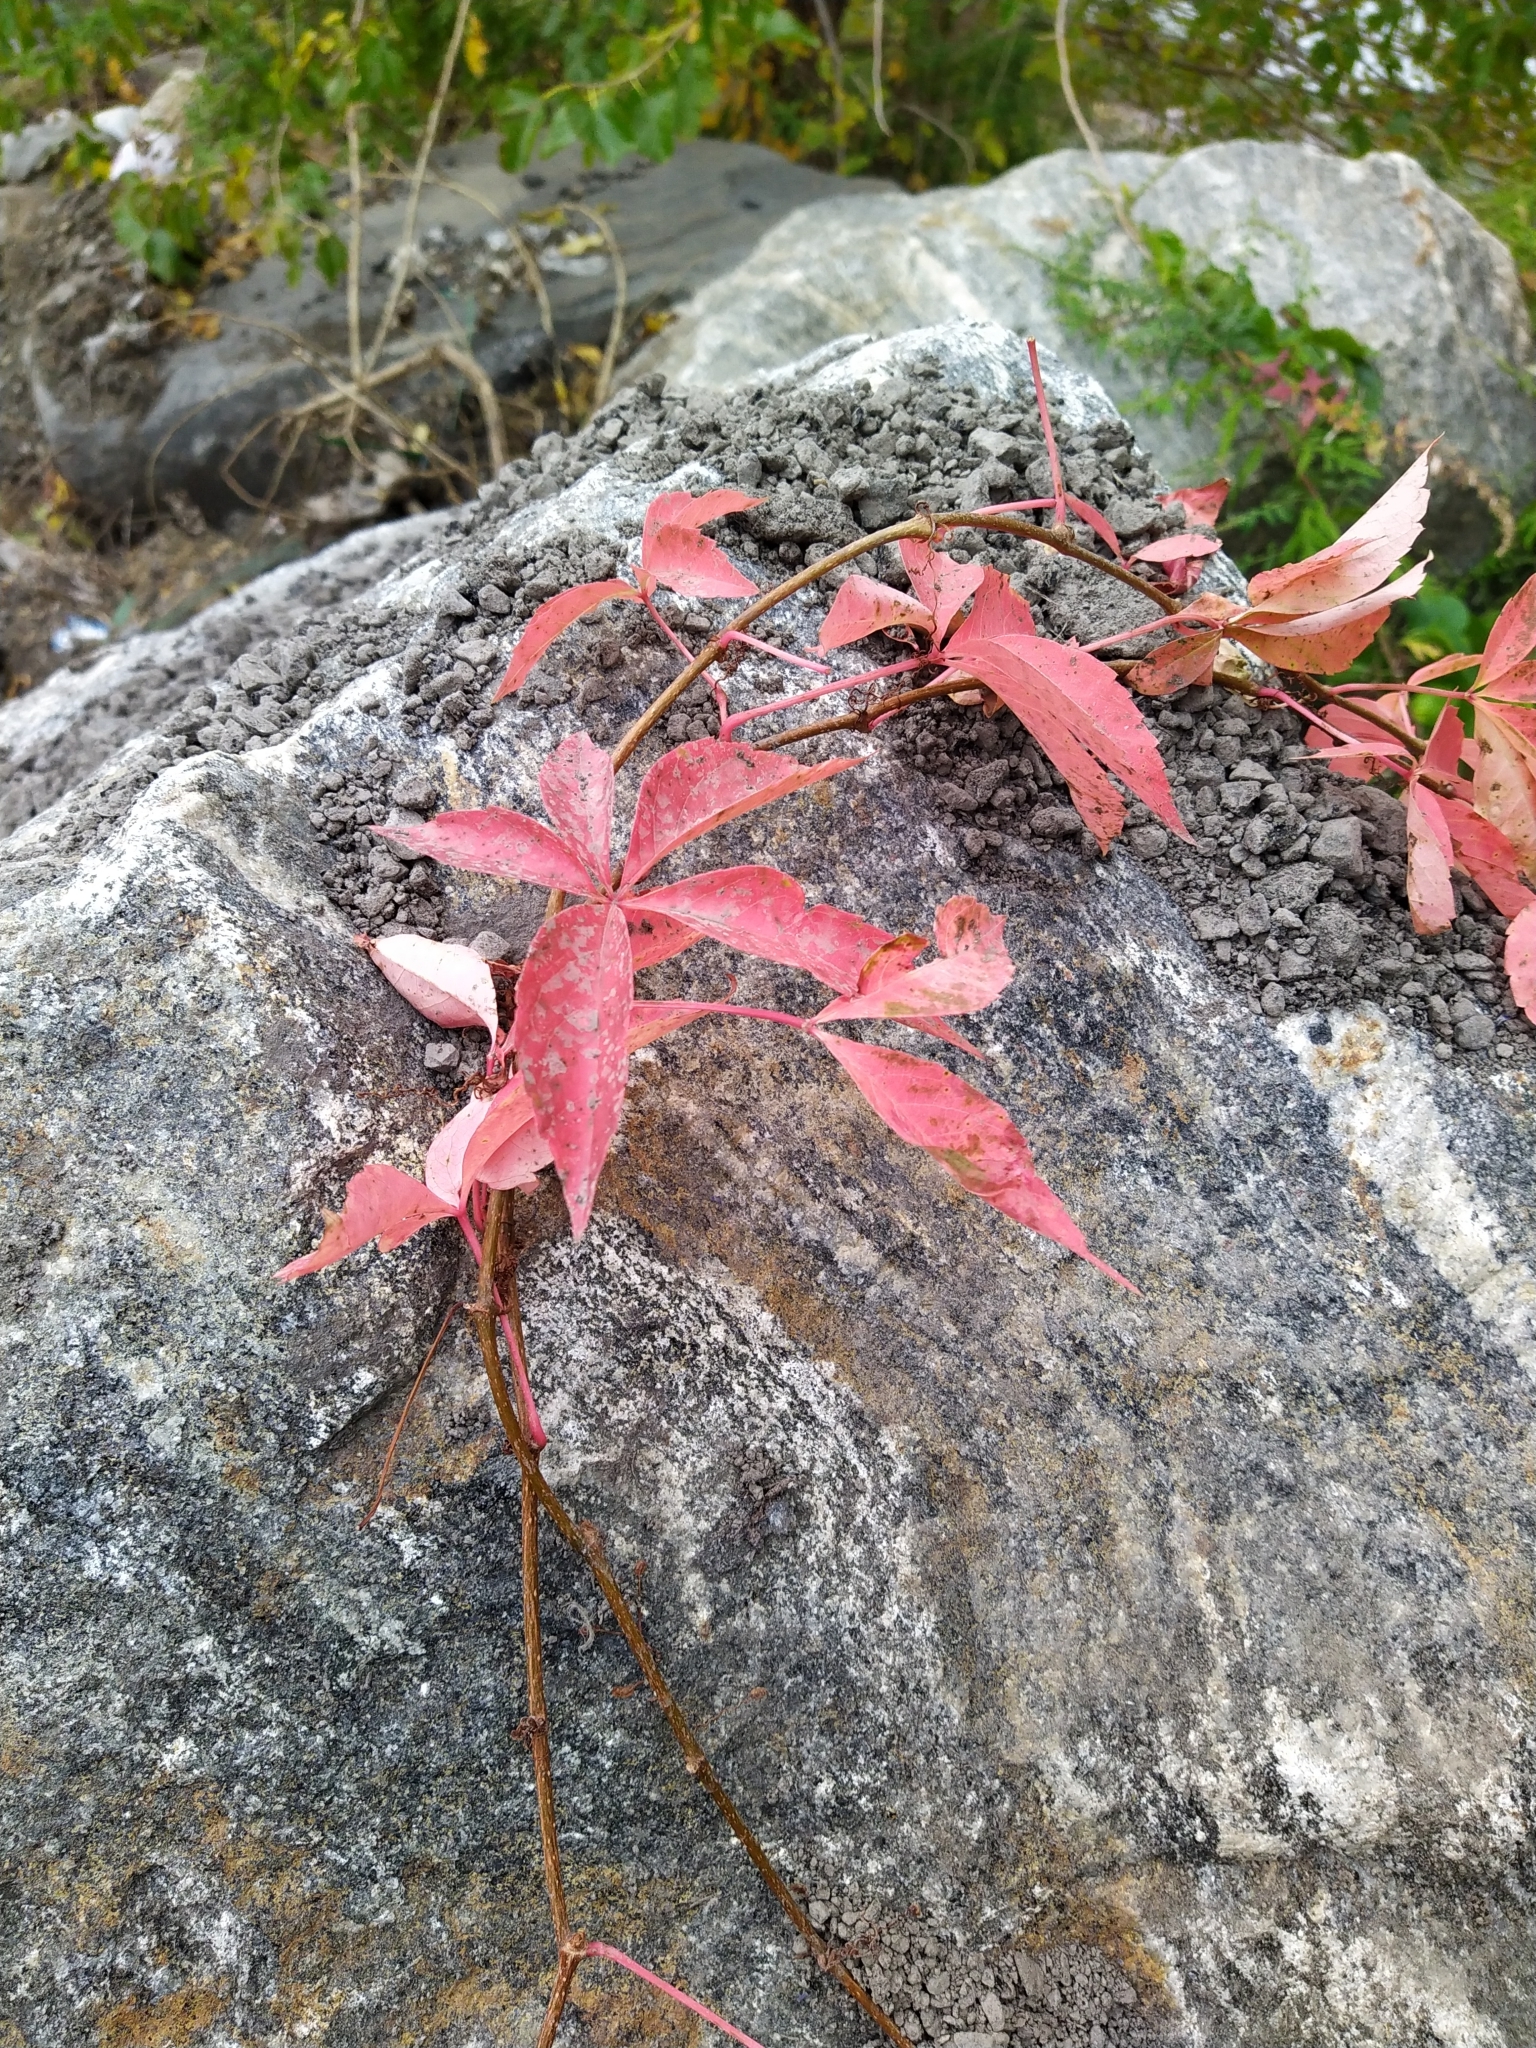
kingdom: Plantae
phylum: Tracheophyta
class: Magnoliopsida
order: Vitales
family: Vitaceae
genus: Parthenocissus
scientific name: Parthenocissus quinquefolia
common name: Virginia-creeper
